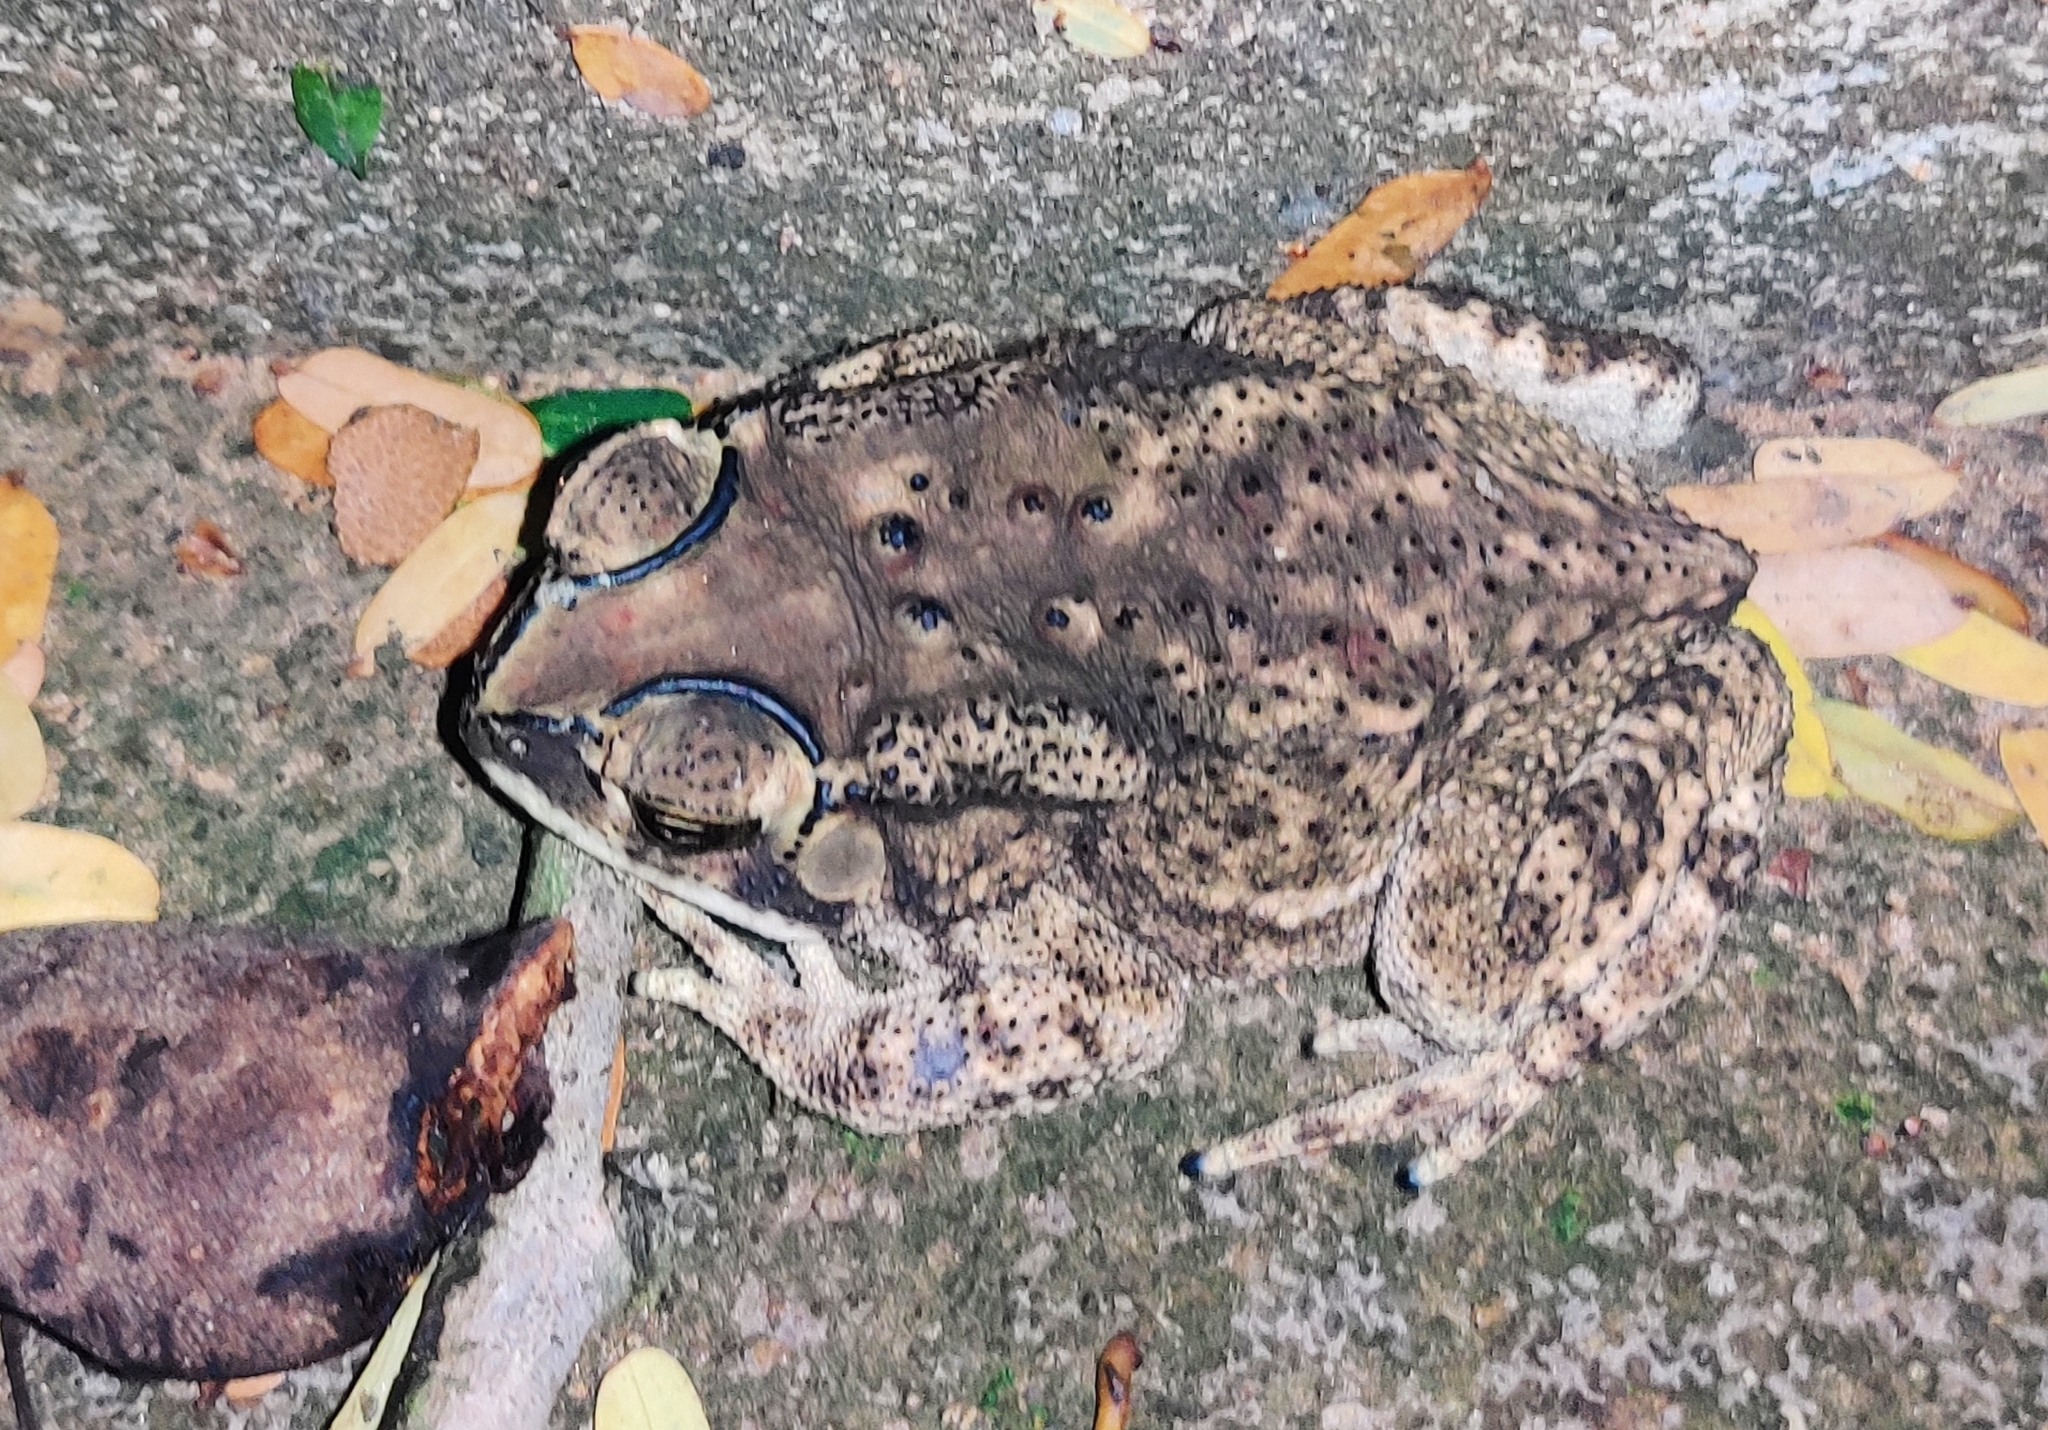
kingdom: Animalia
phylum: Chordata
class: Amphibia
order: Anura
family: Bufonidae
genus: Duttaphrynus
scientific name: Duttaphrynus melanostictus
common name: Common sunda toad
